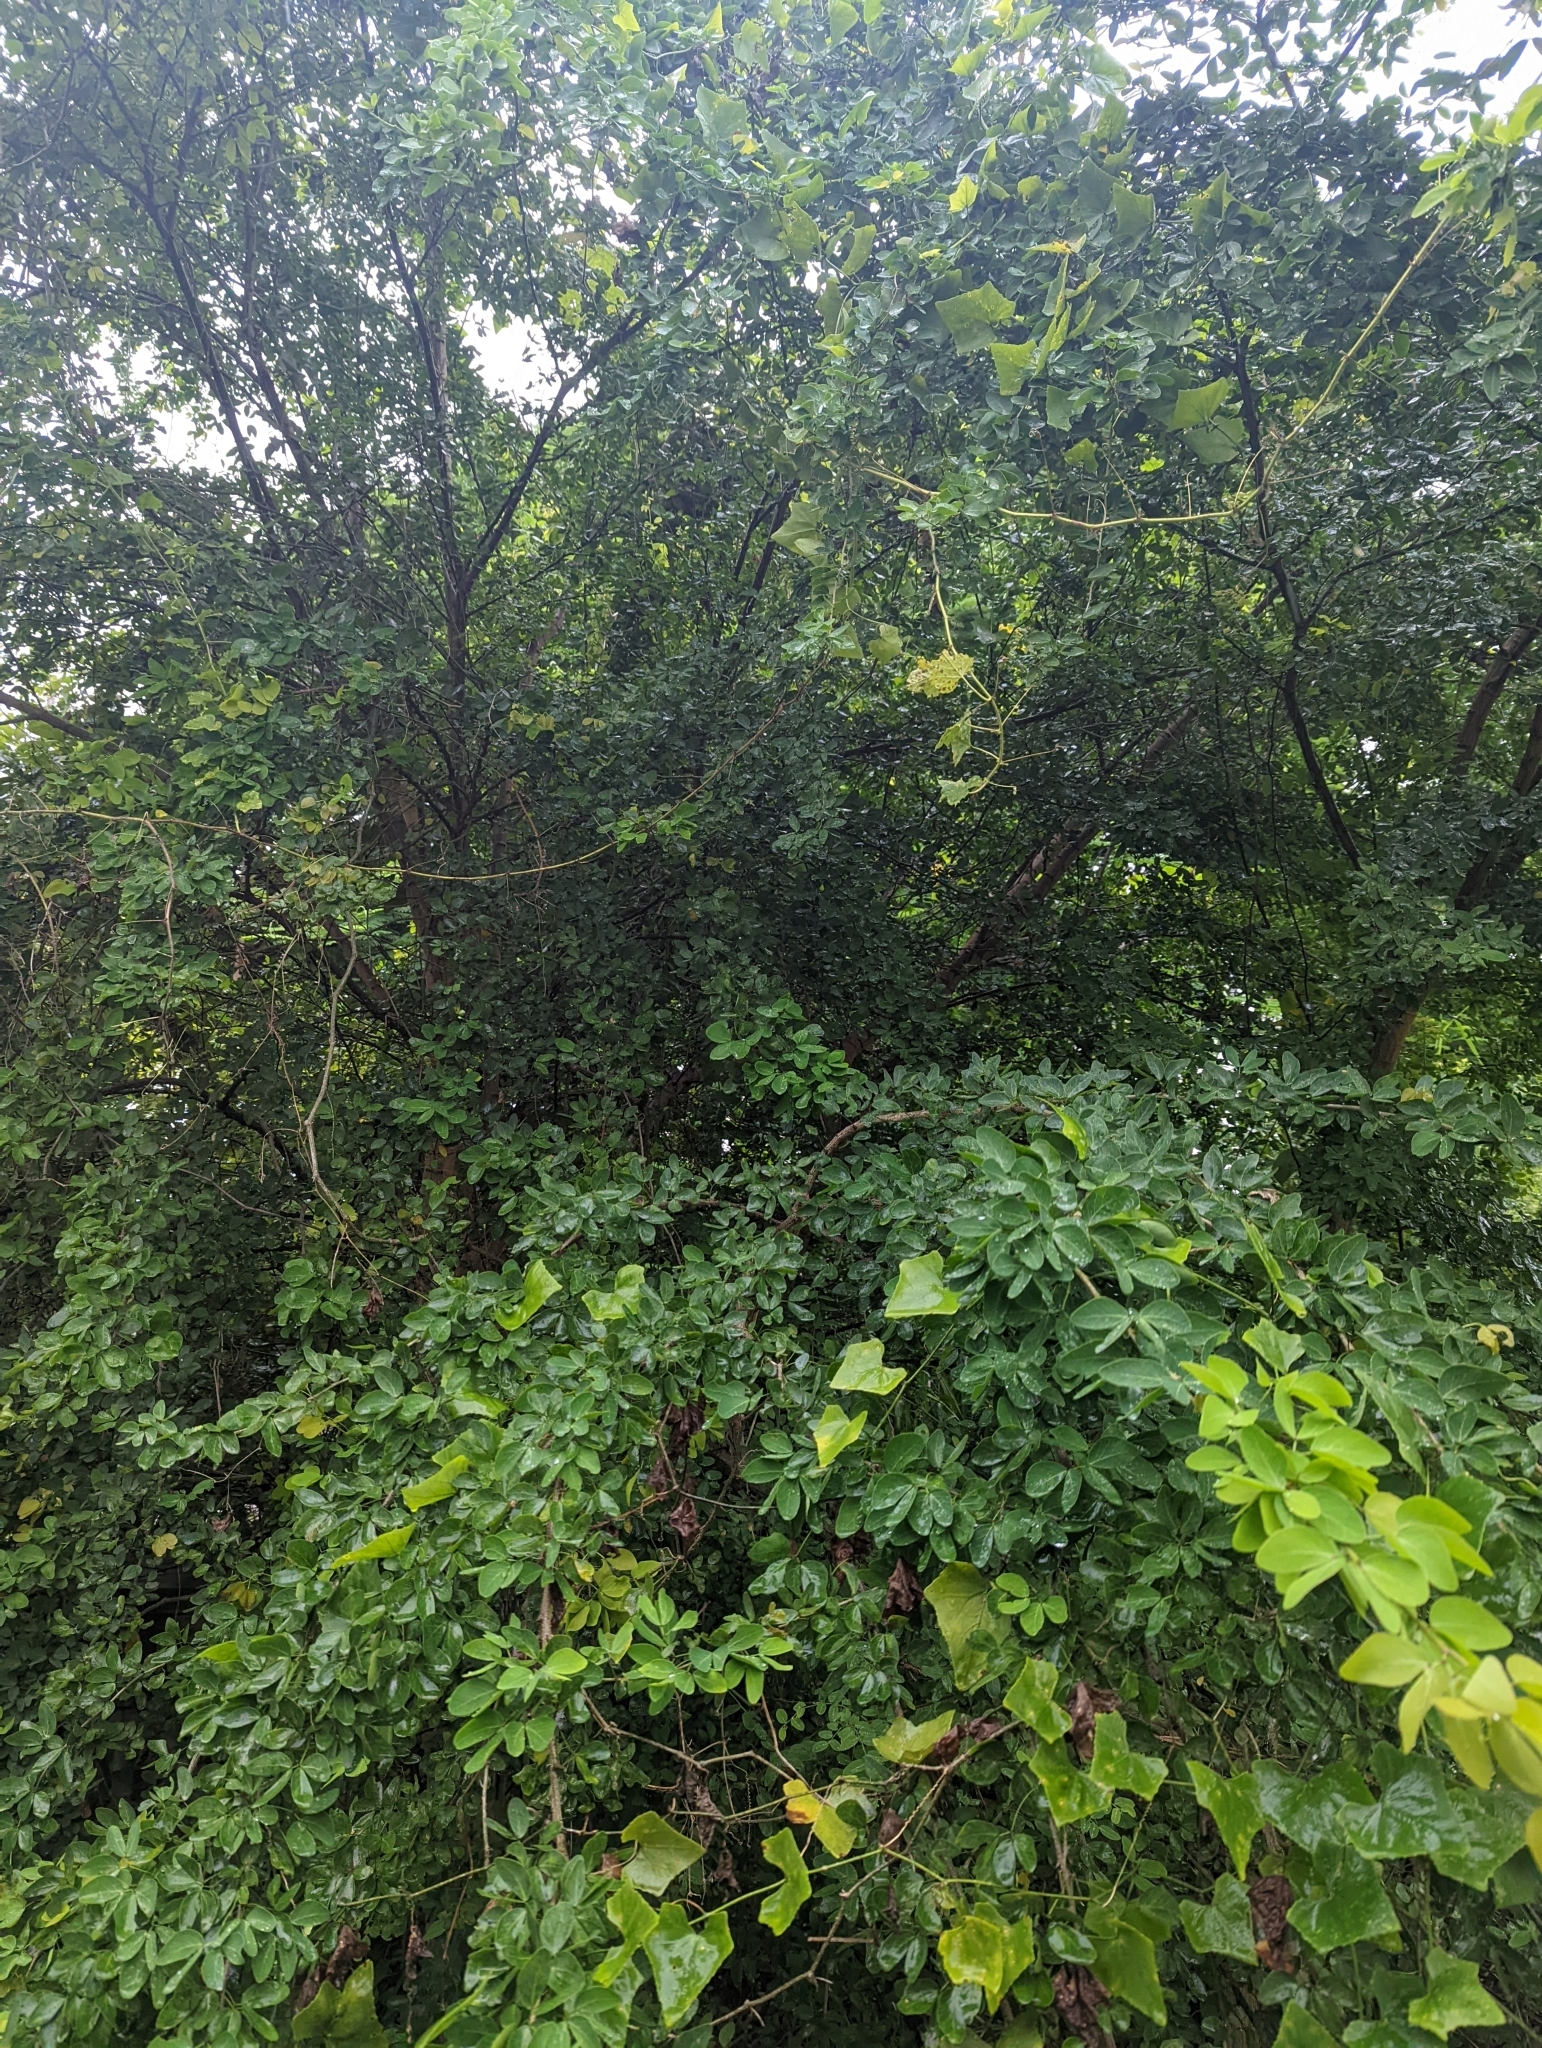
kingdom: Plantae
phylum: Tracheophyta
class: Magnoliopsida
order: Fabales
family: Fabaceae
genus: Pithecellobium
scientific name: Pithecellobium dulce
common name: Monkeypod
